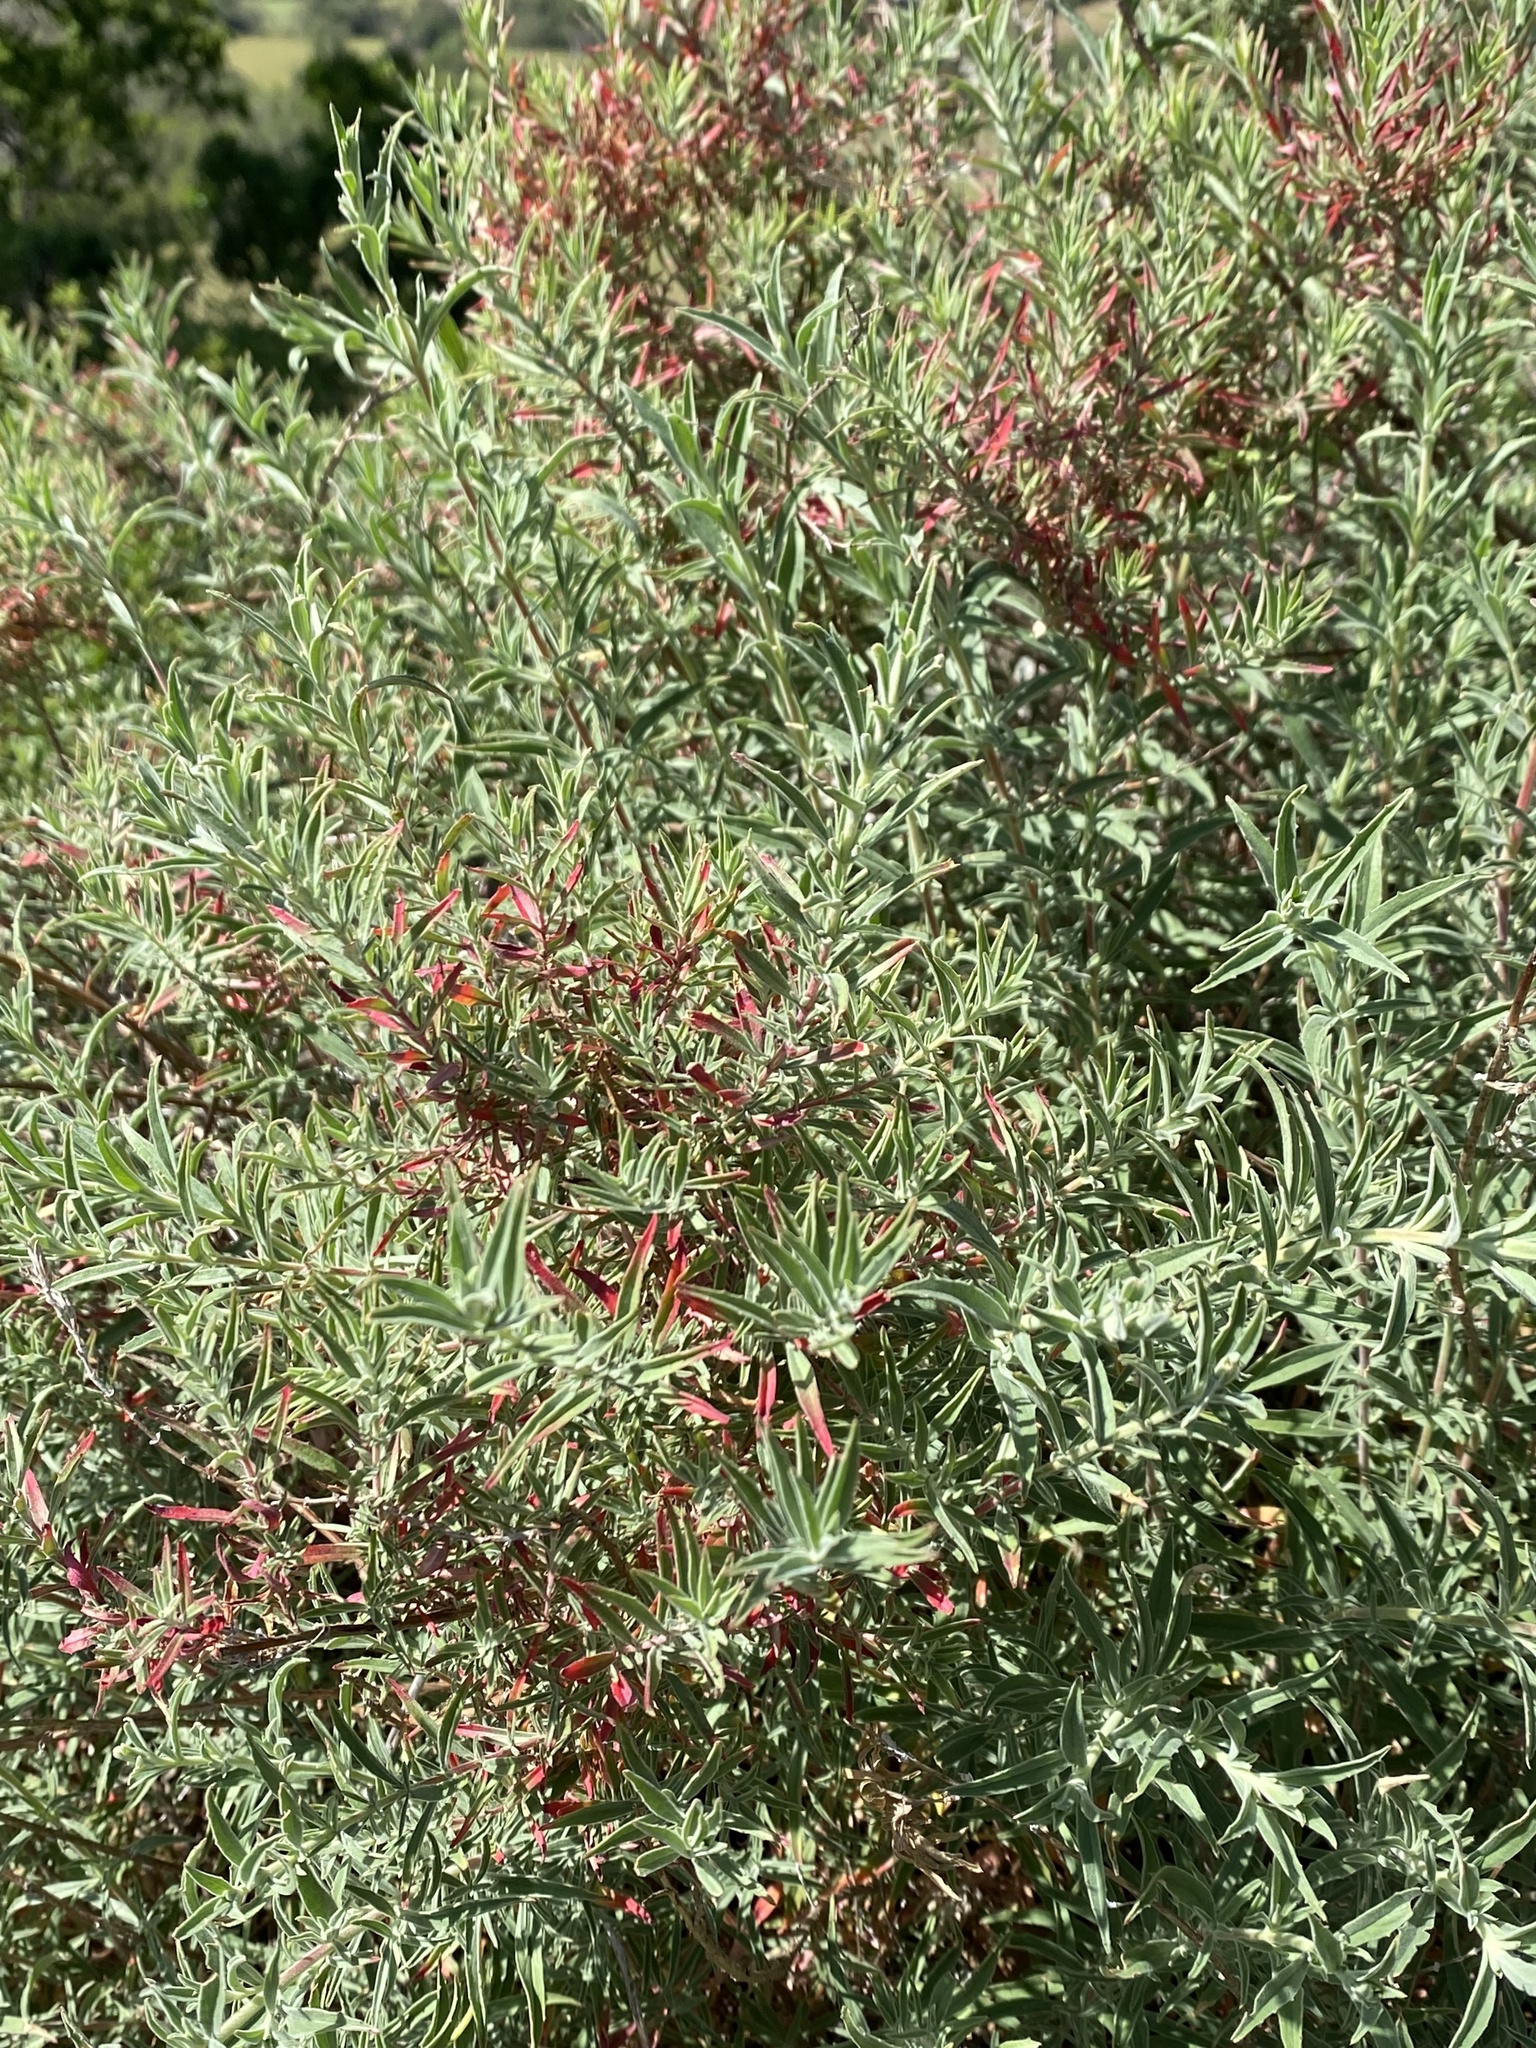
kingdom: Plantae
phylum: Tracheophyta
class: Magnoliopsida
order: Myrtales
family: Onagraceae
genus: Epilobium
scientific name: Epilobium canum
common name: California-fuchsia
